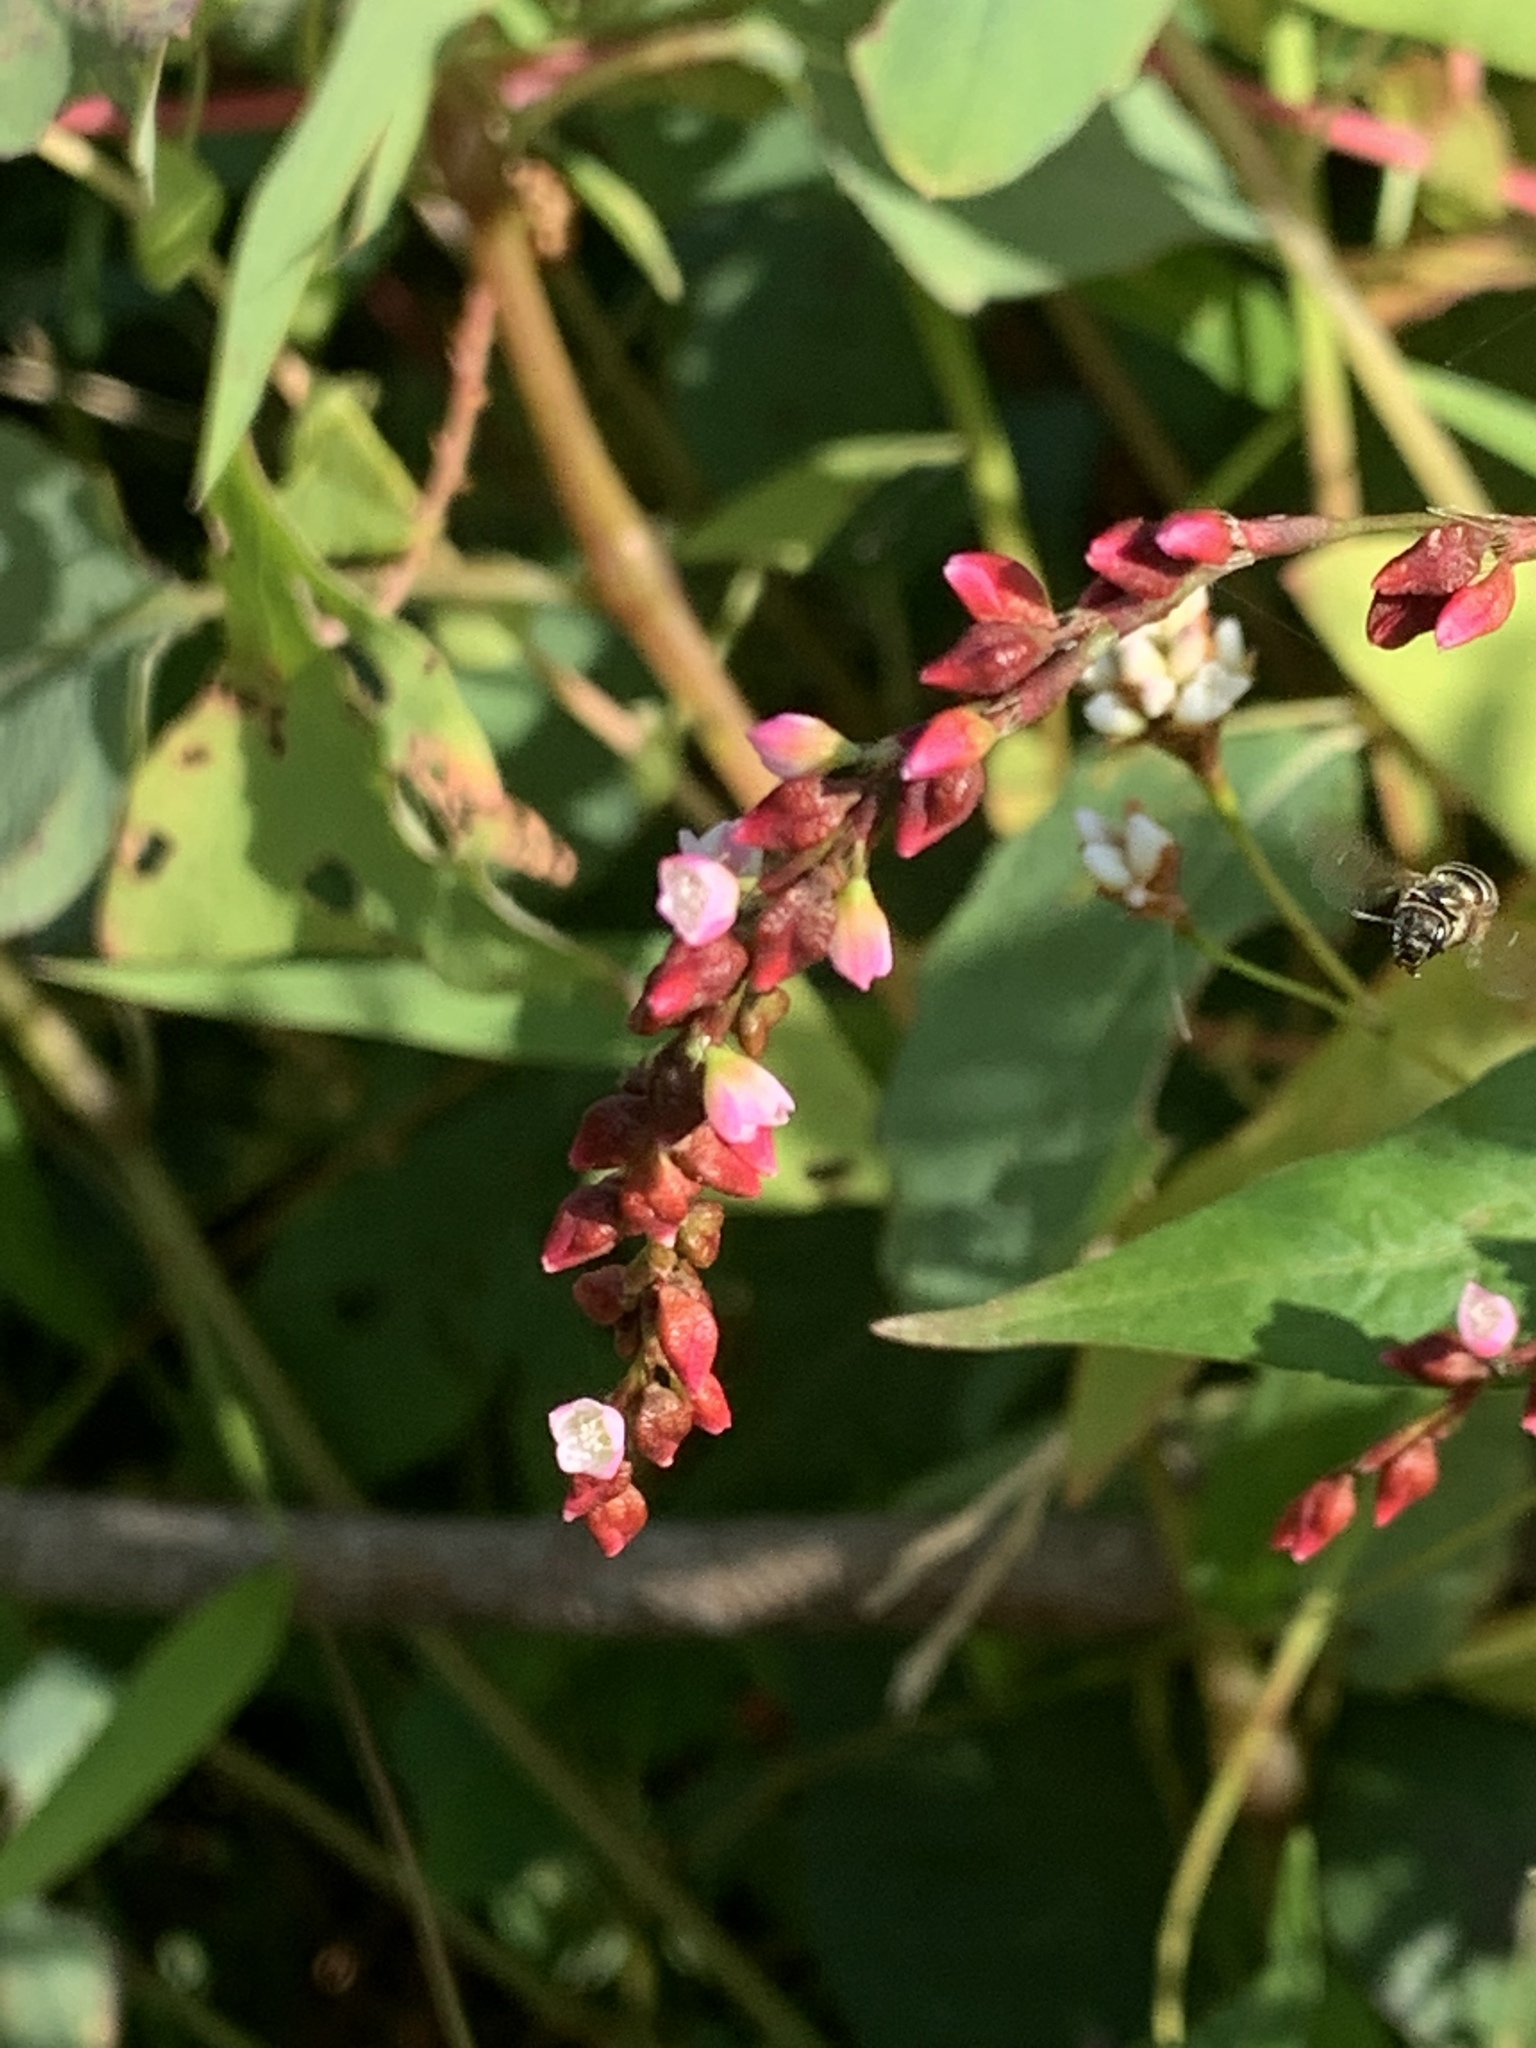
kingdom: Plantae
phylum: Tracheophyta
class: Magnoliopsida
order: Caryophyllales
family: Polygonaceae
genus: Persicaria
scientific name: Persicaria hydropiper
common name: Water-pepper
